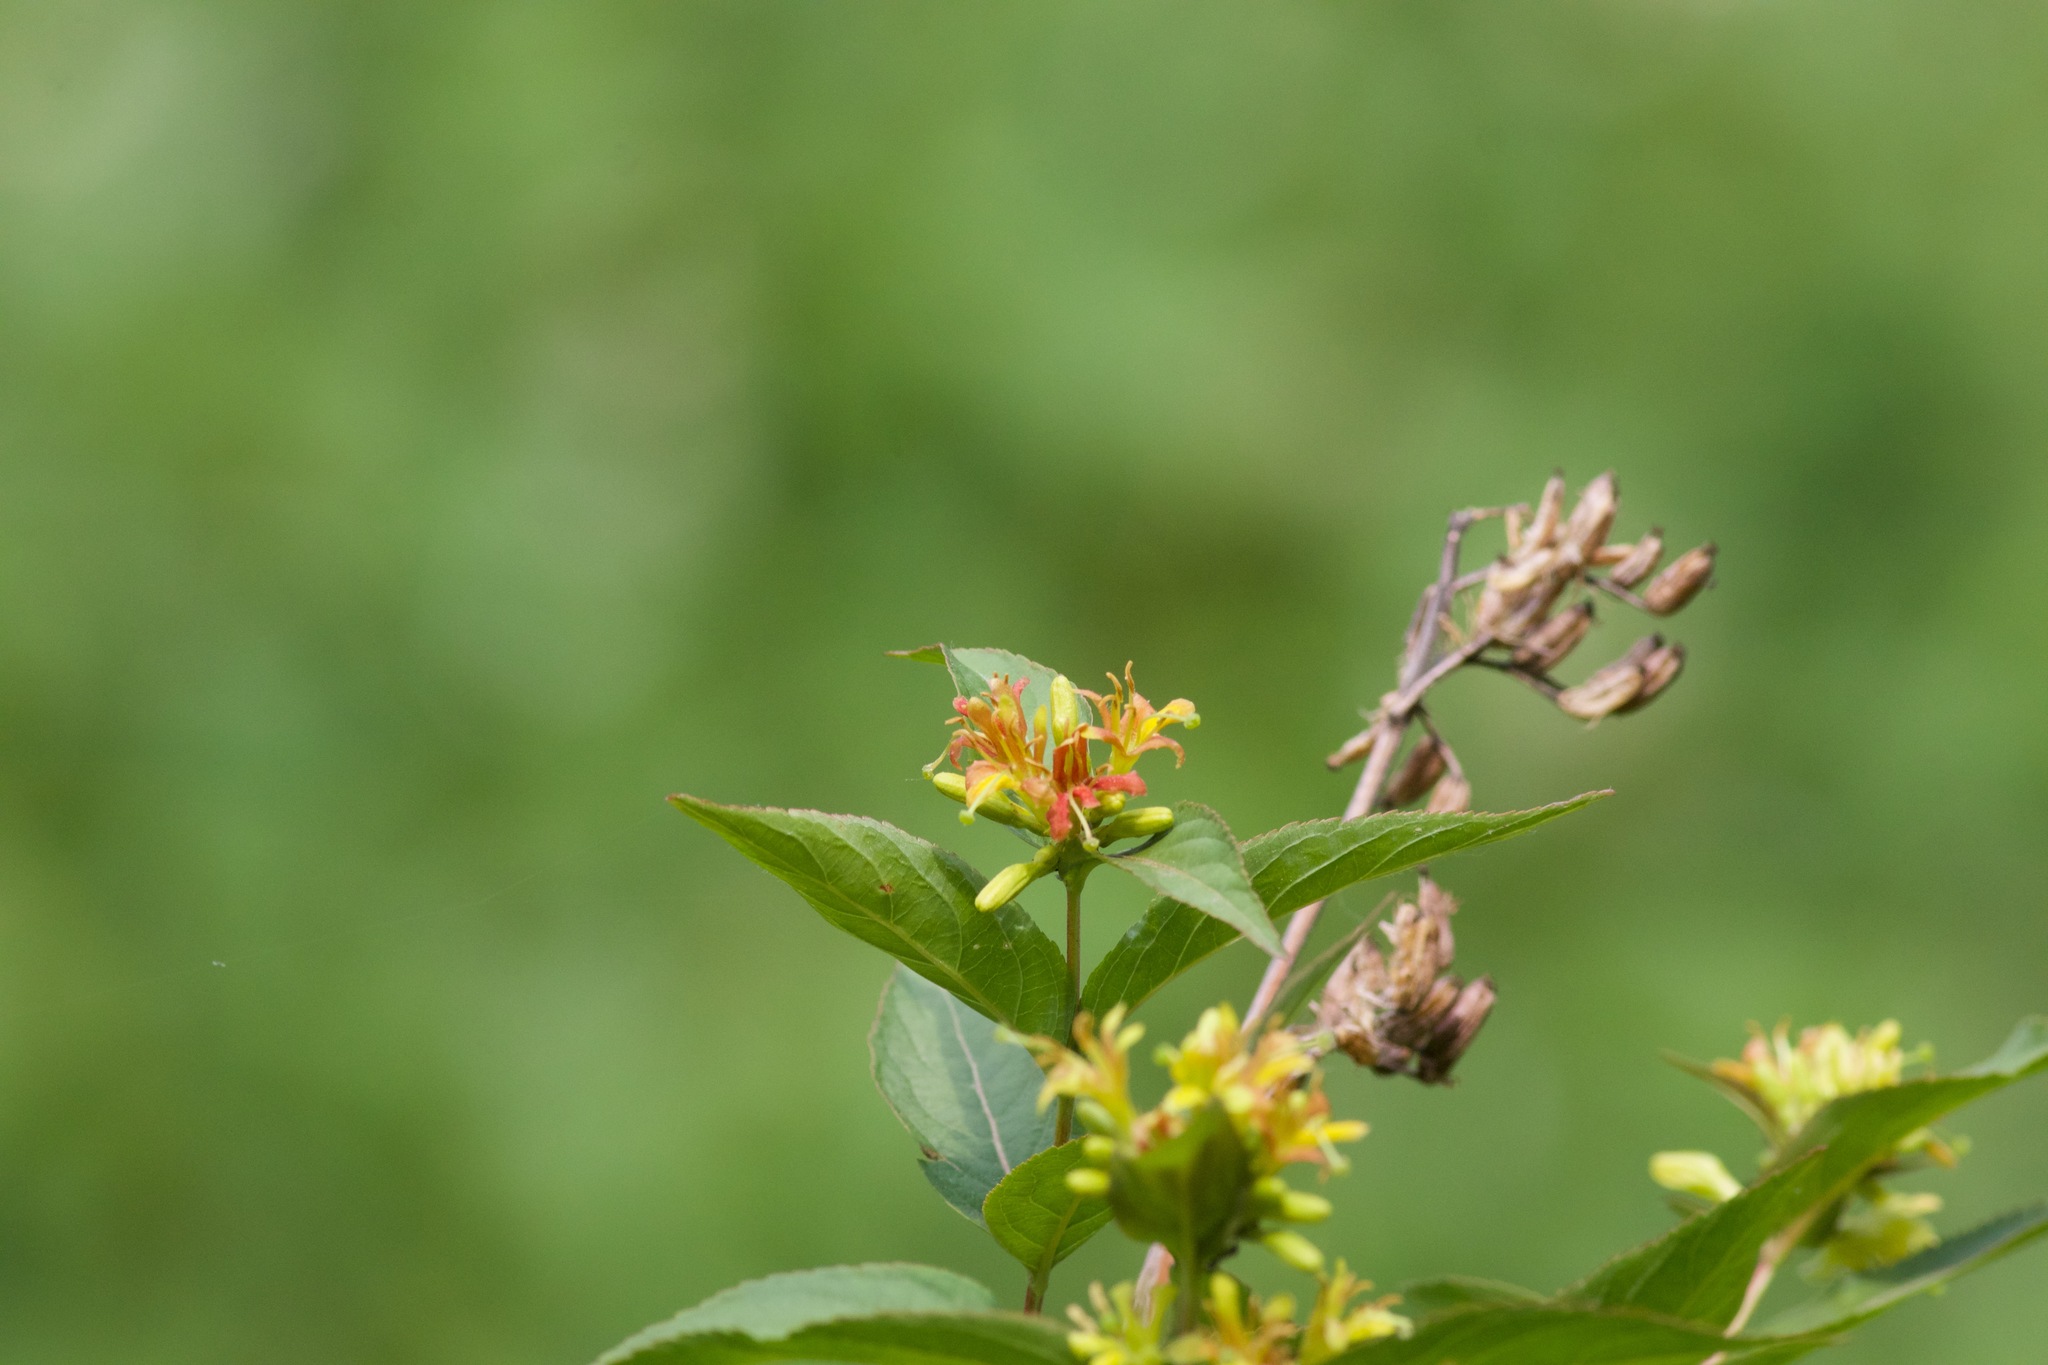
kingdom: Plantae
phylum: Tracheophyta
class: Magnoliopsida
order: Dipsacales
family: Caprifoliaceae
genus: Diervilla
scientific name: Diervilla lonicera
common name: Bush-honeysuckle
